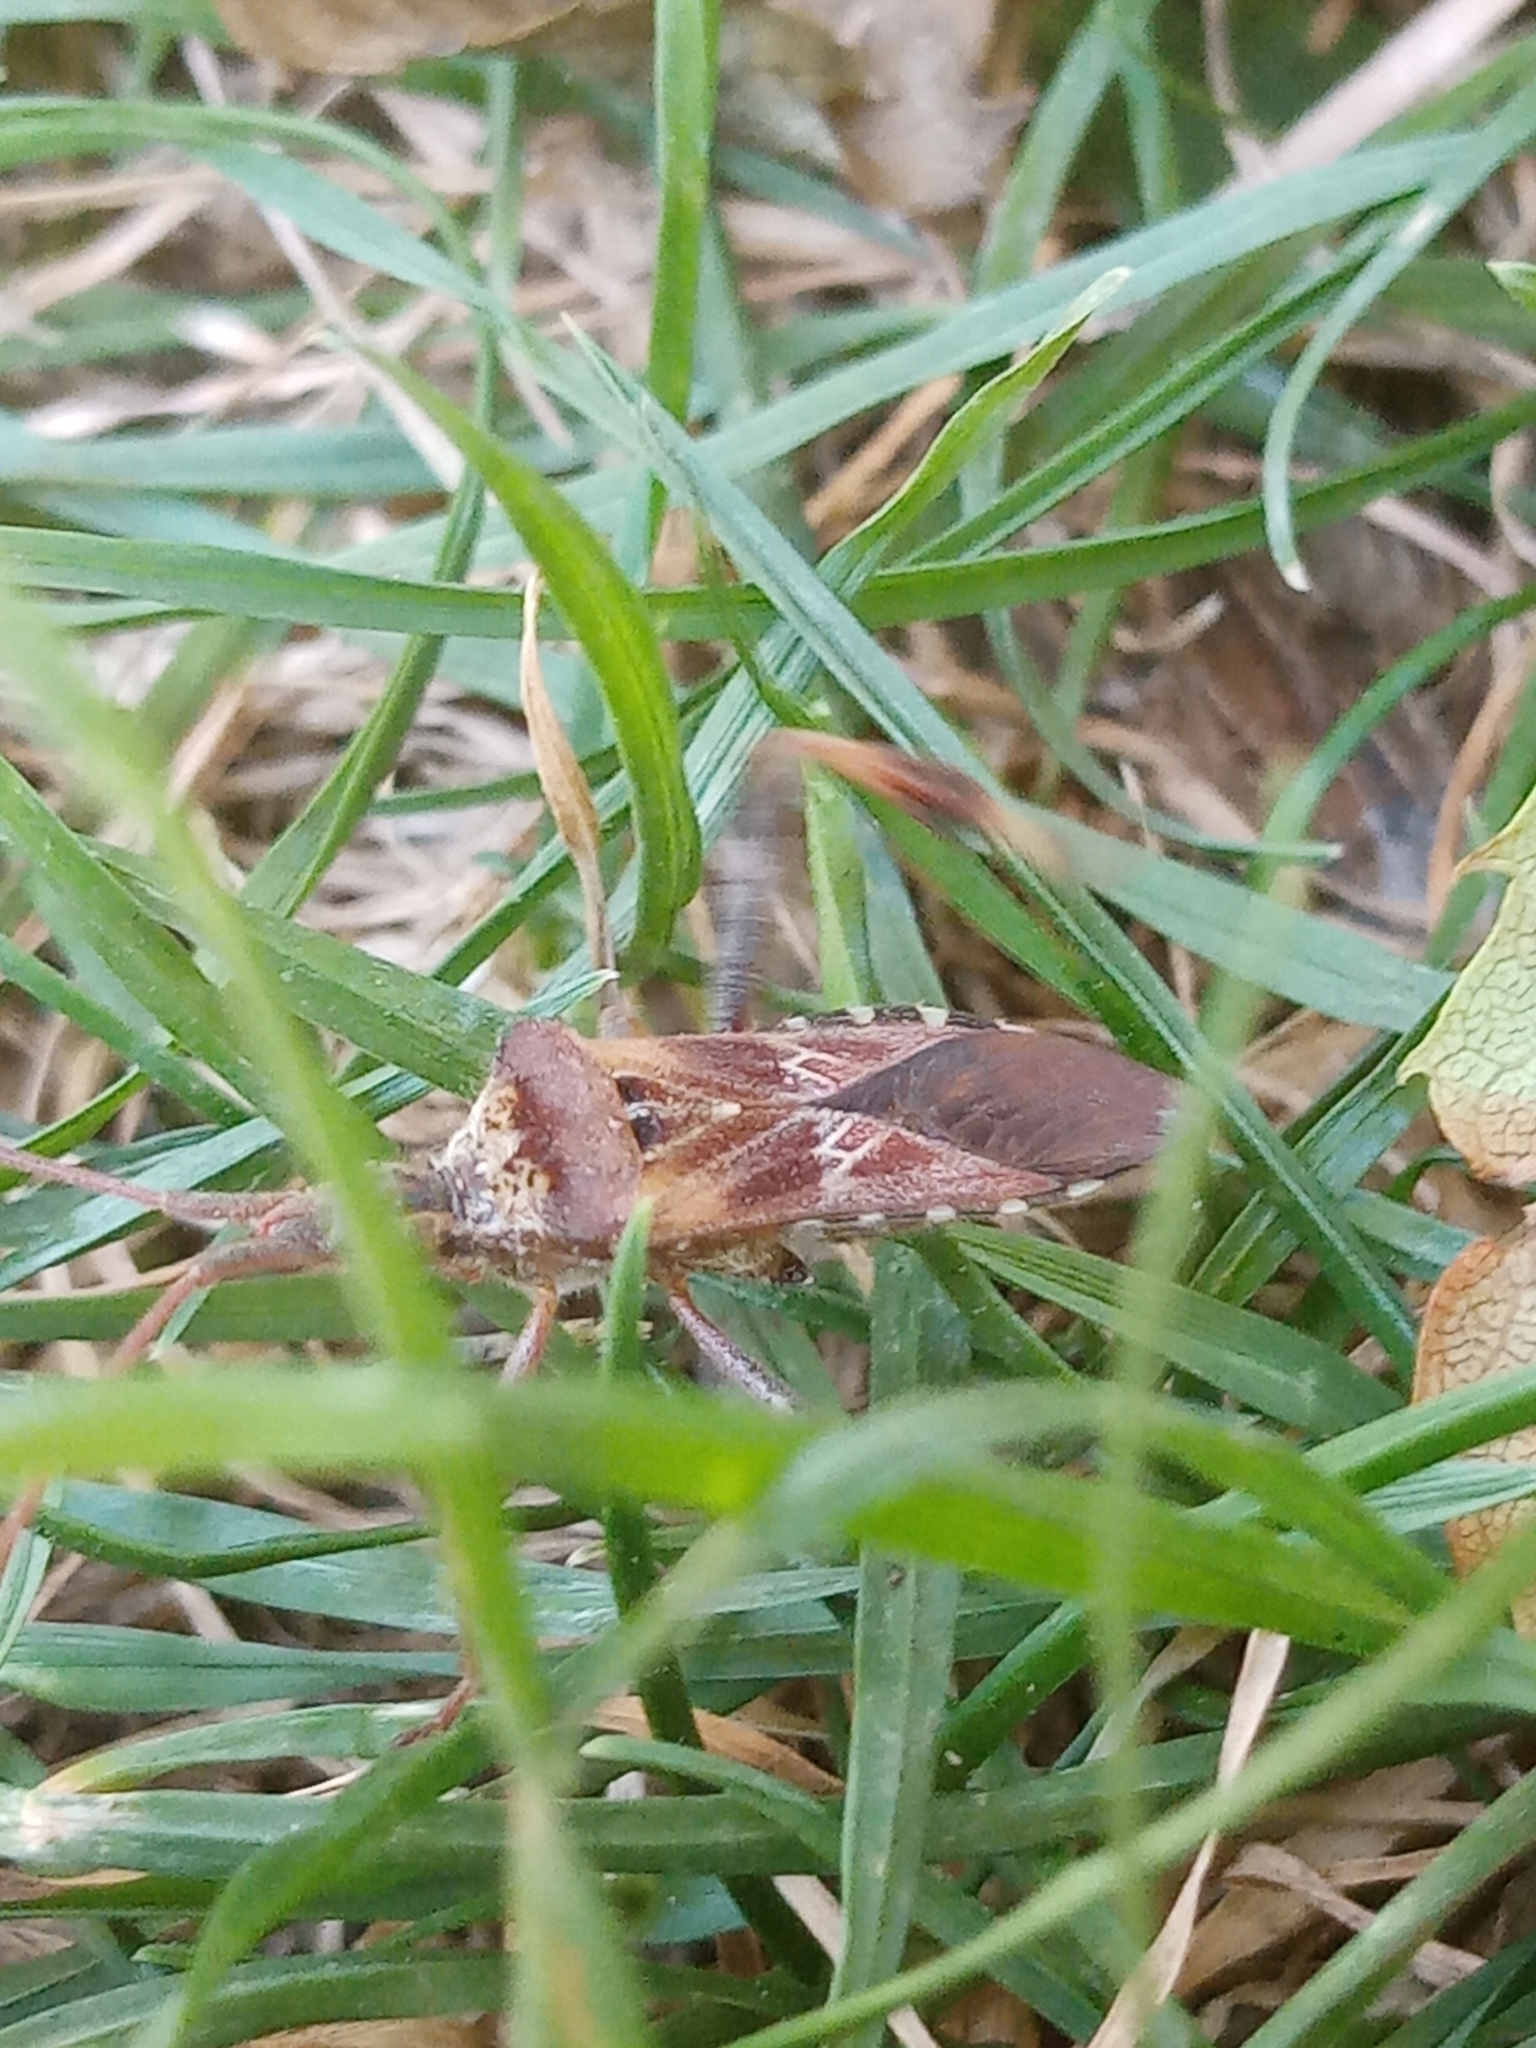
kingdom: Animalia
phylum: Arthropoda
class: Insecta
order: Hemiptera
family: Coreidae
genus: Leptoglossus
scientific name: Leptoglossus occidentalis
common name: Western conifer-seed bug
